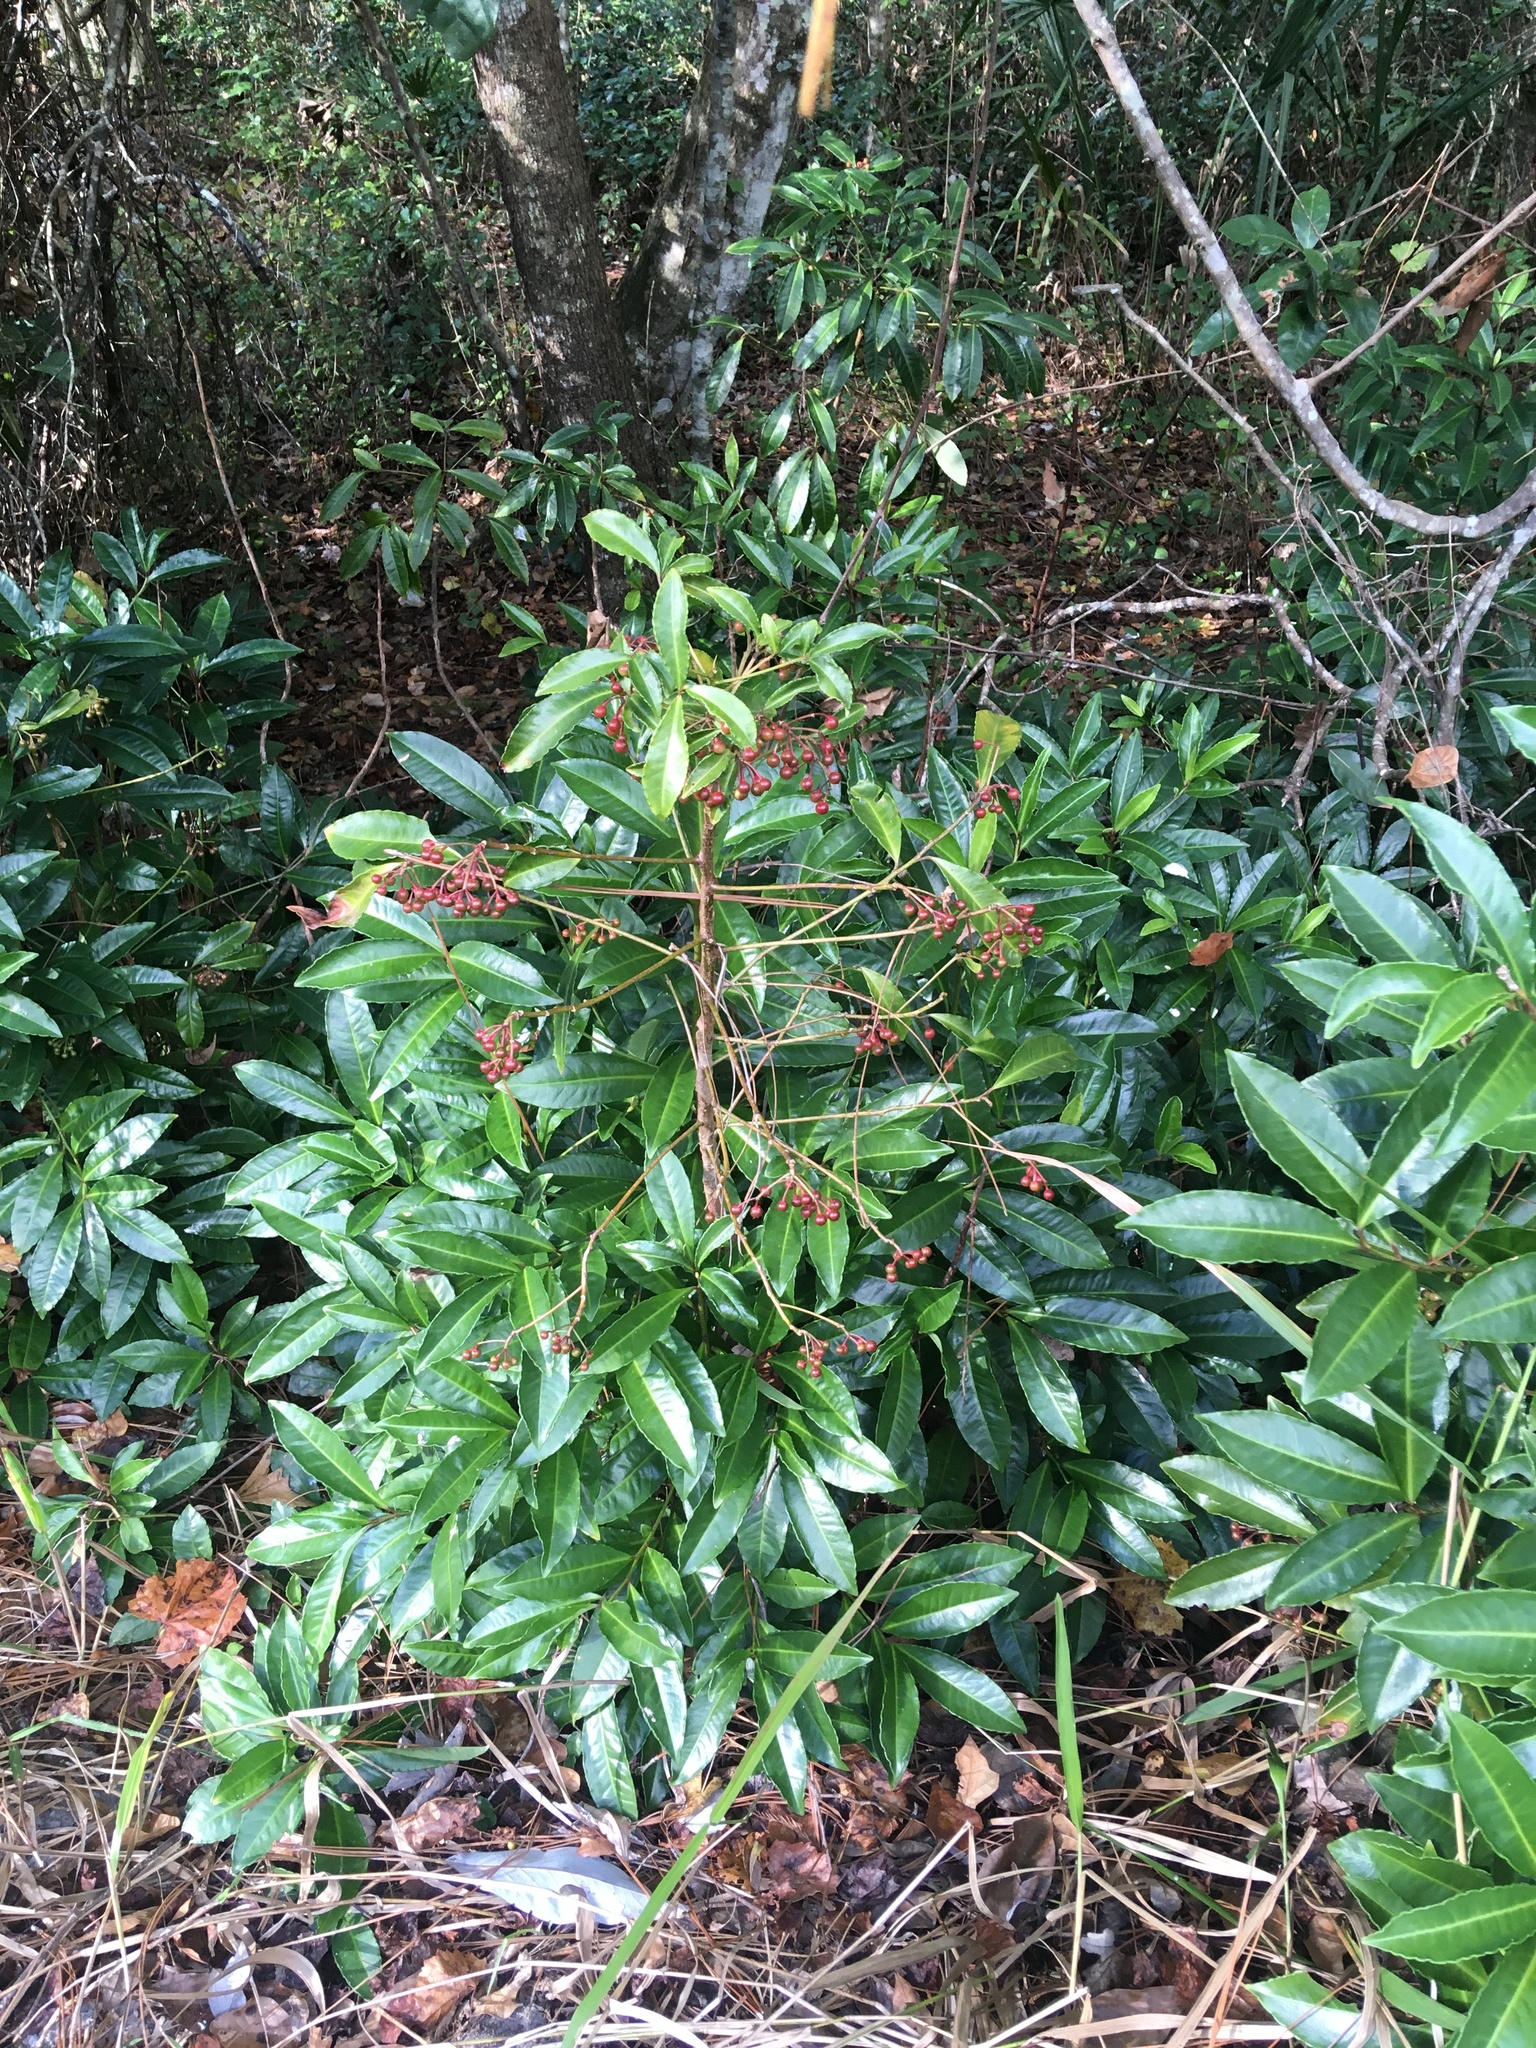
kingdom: Plantae
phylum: Tracheophyta
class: Magnoliopsida
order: Ericales
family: Primulaceae
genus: Ardisia
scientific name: Ardisia crenata
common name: Hen's eyes
